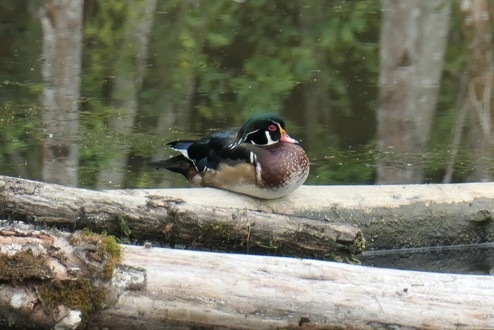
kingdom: Animalia
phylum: Chordata
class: Aves
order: Anseriformes
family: Anatidae
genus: Aix
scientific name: Aix sponsa
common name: Wood duck
